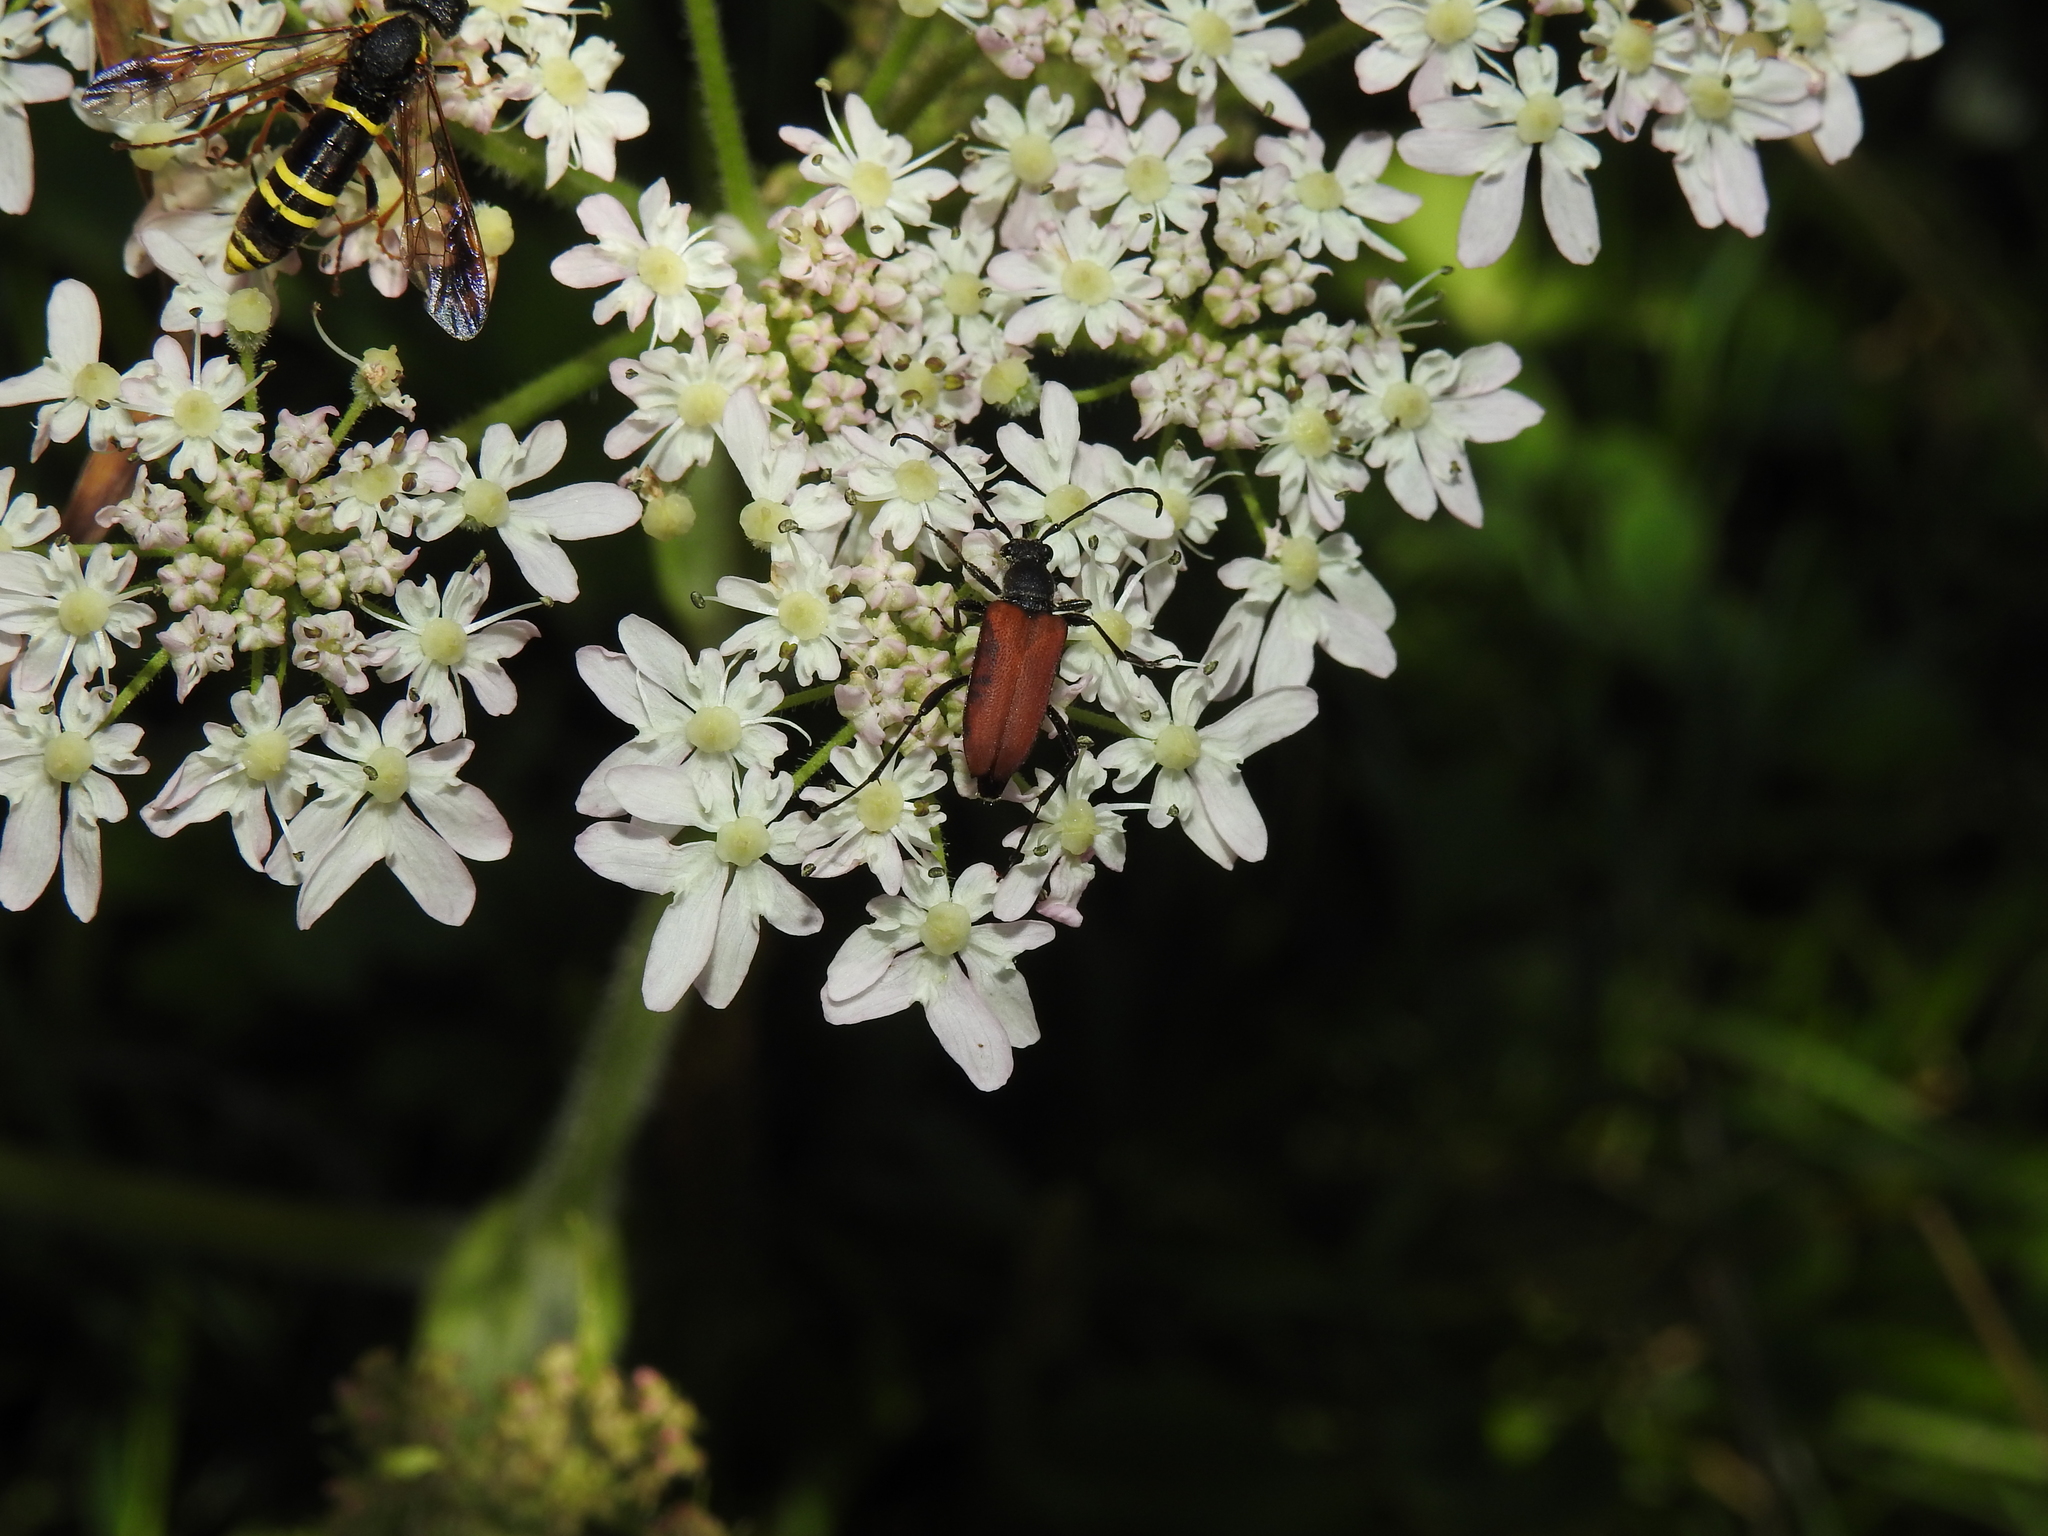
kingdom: Animalia
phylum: Arthropoda
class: Insecta
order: Coleoptera
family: Cerambycidae
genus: Anastrangalia
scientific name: Anastrangalia sanguinolenta
